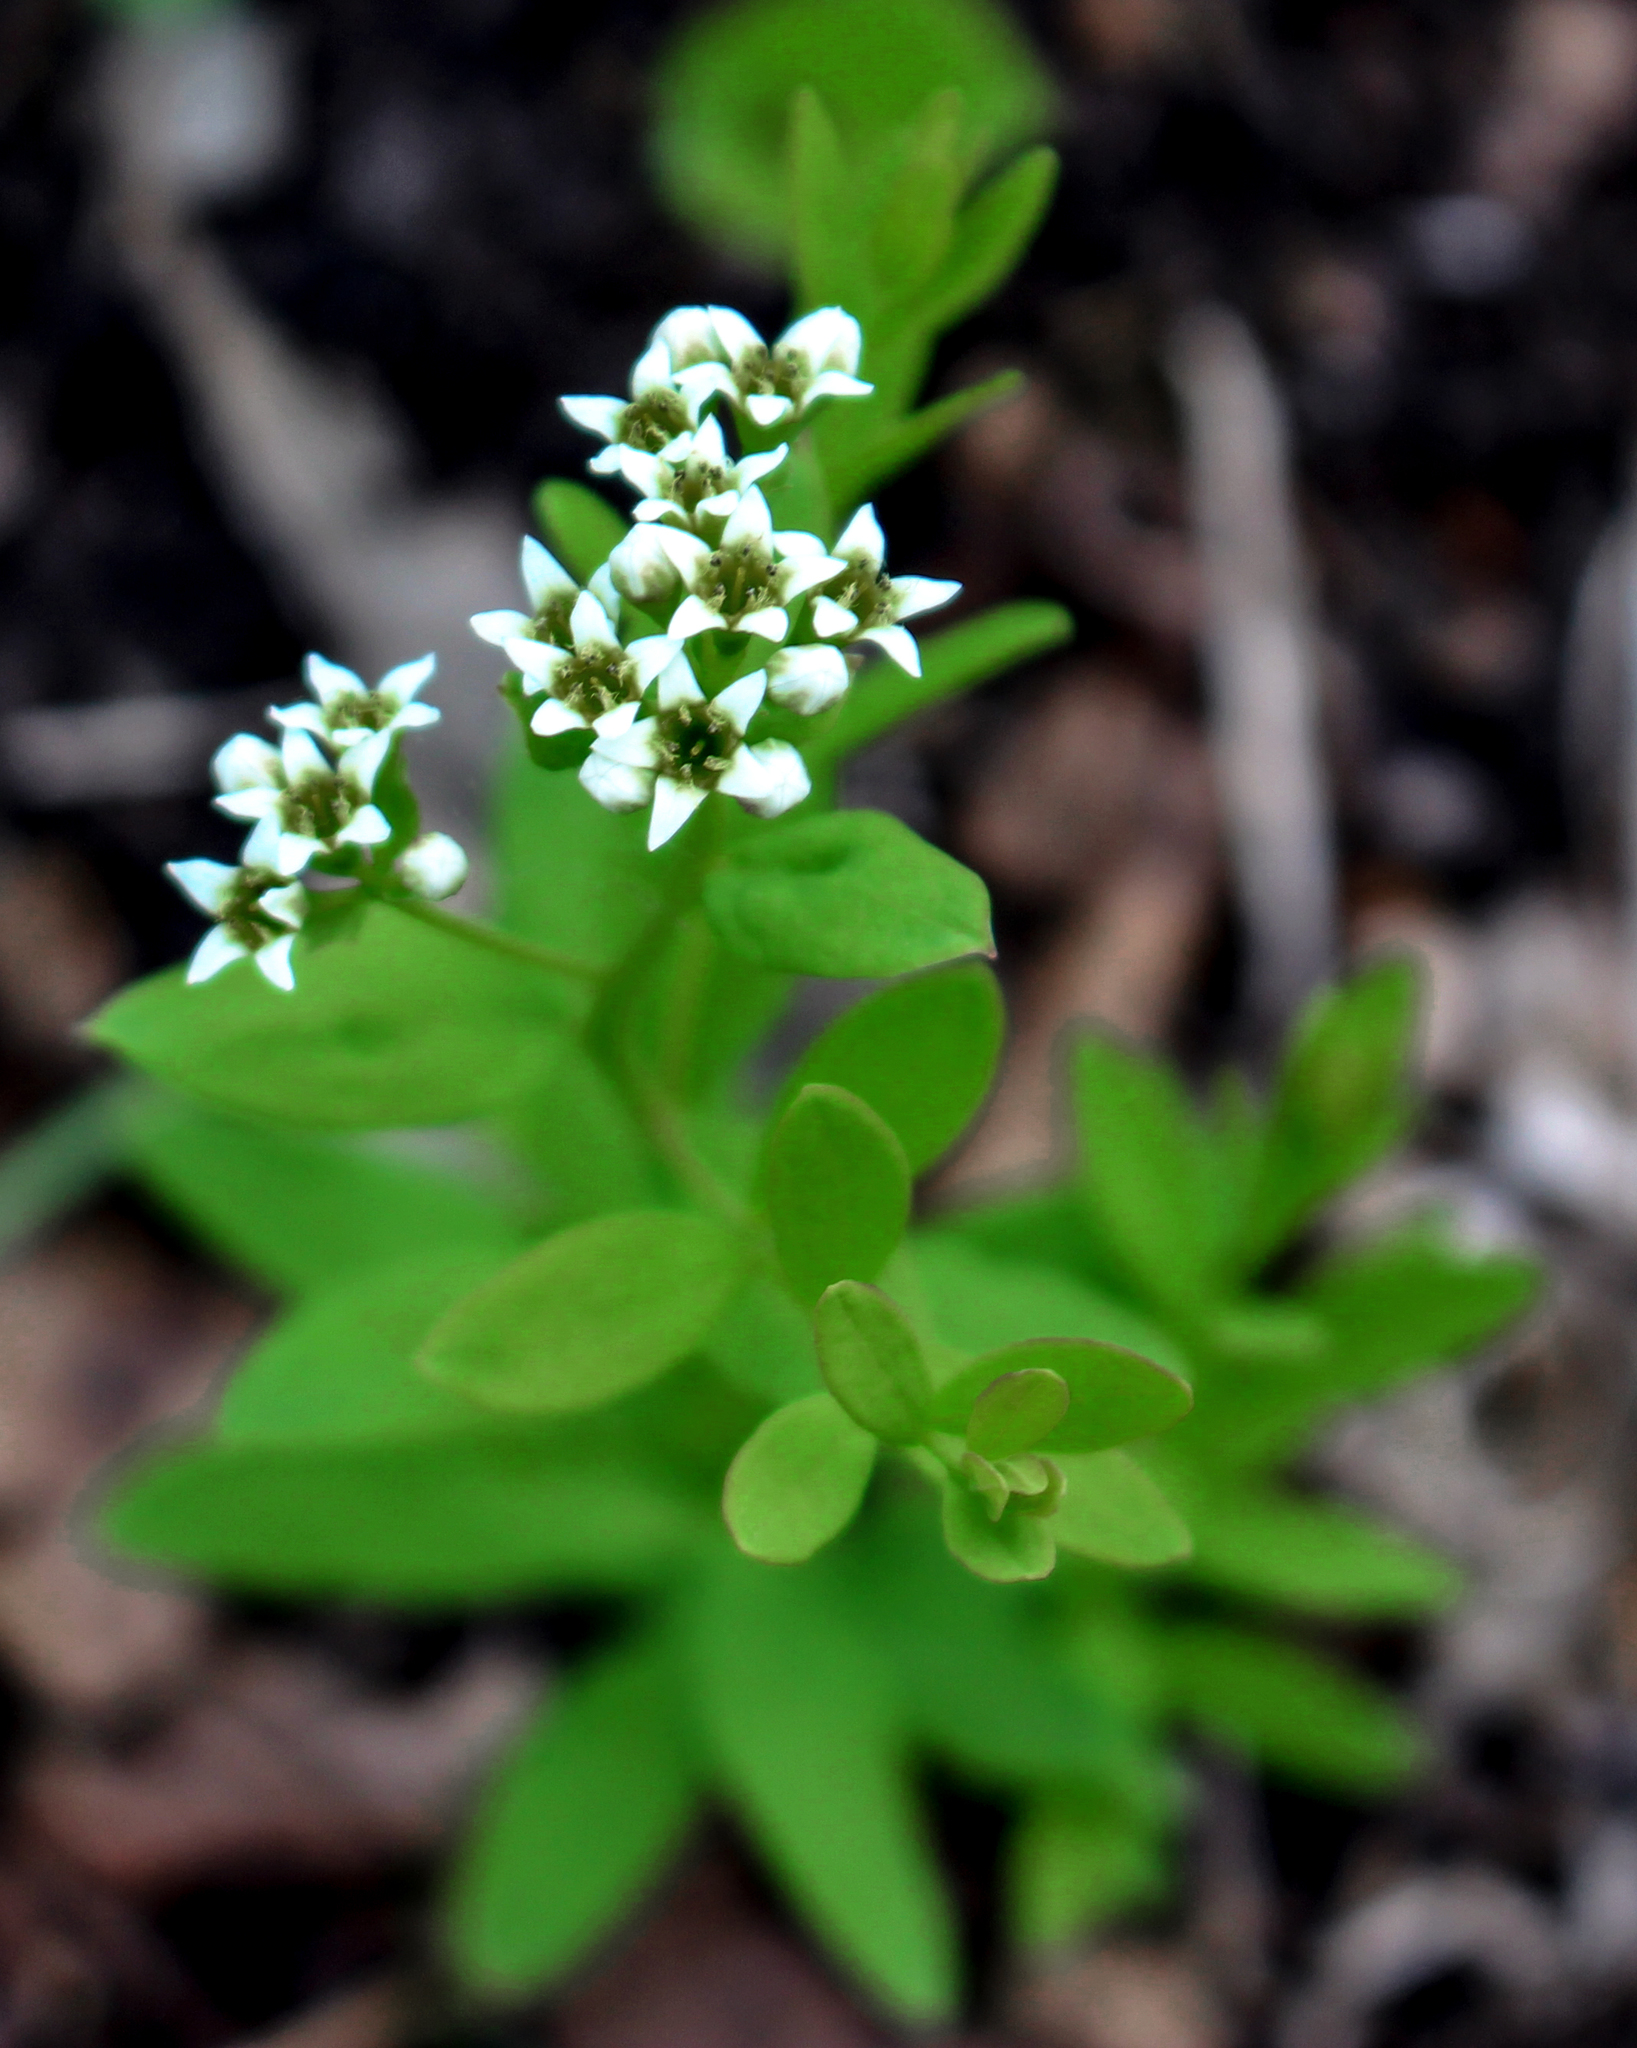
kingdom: Plantae
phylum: Tracheophyta
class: Magnoliopsida
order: Santalales
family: Comandraceae
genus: Comandra
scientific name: Comandra umbellata
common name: Bastard toadflax
